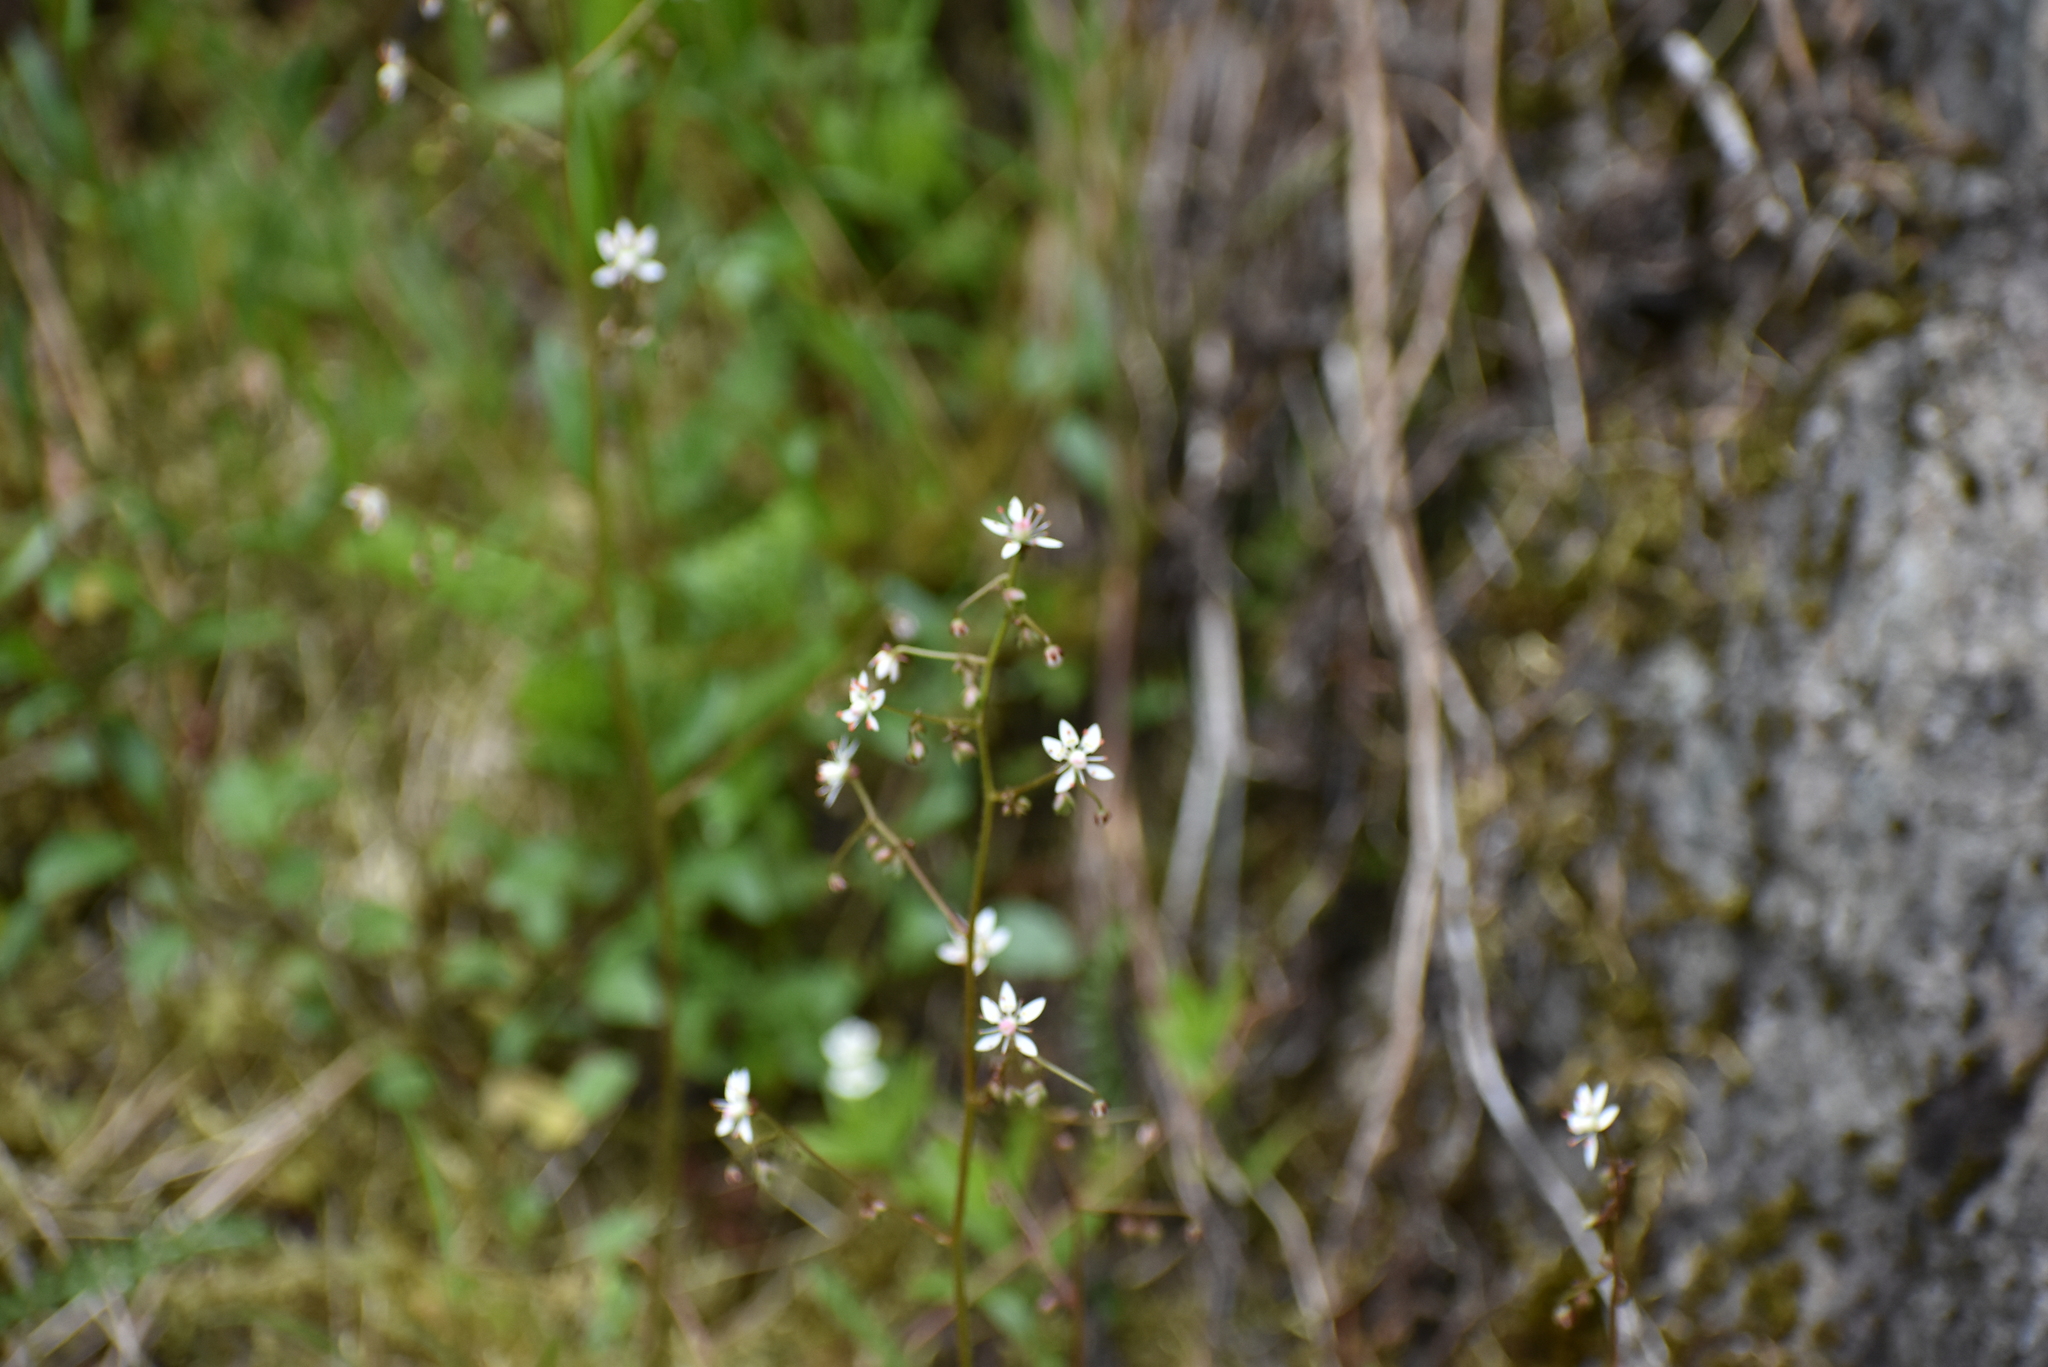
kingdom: Plantae
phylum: Tracheophyta
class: Magnoliopsida
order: Saxifragales
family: Saxifragaceae
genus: Micranthes
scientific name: Micranthes ferruginea
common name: Rusty saxifrage
